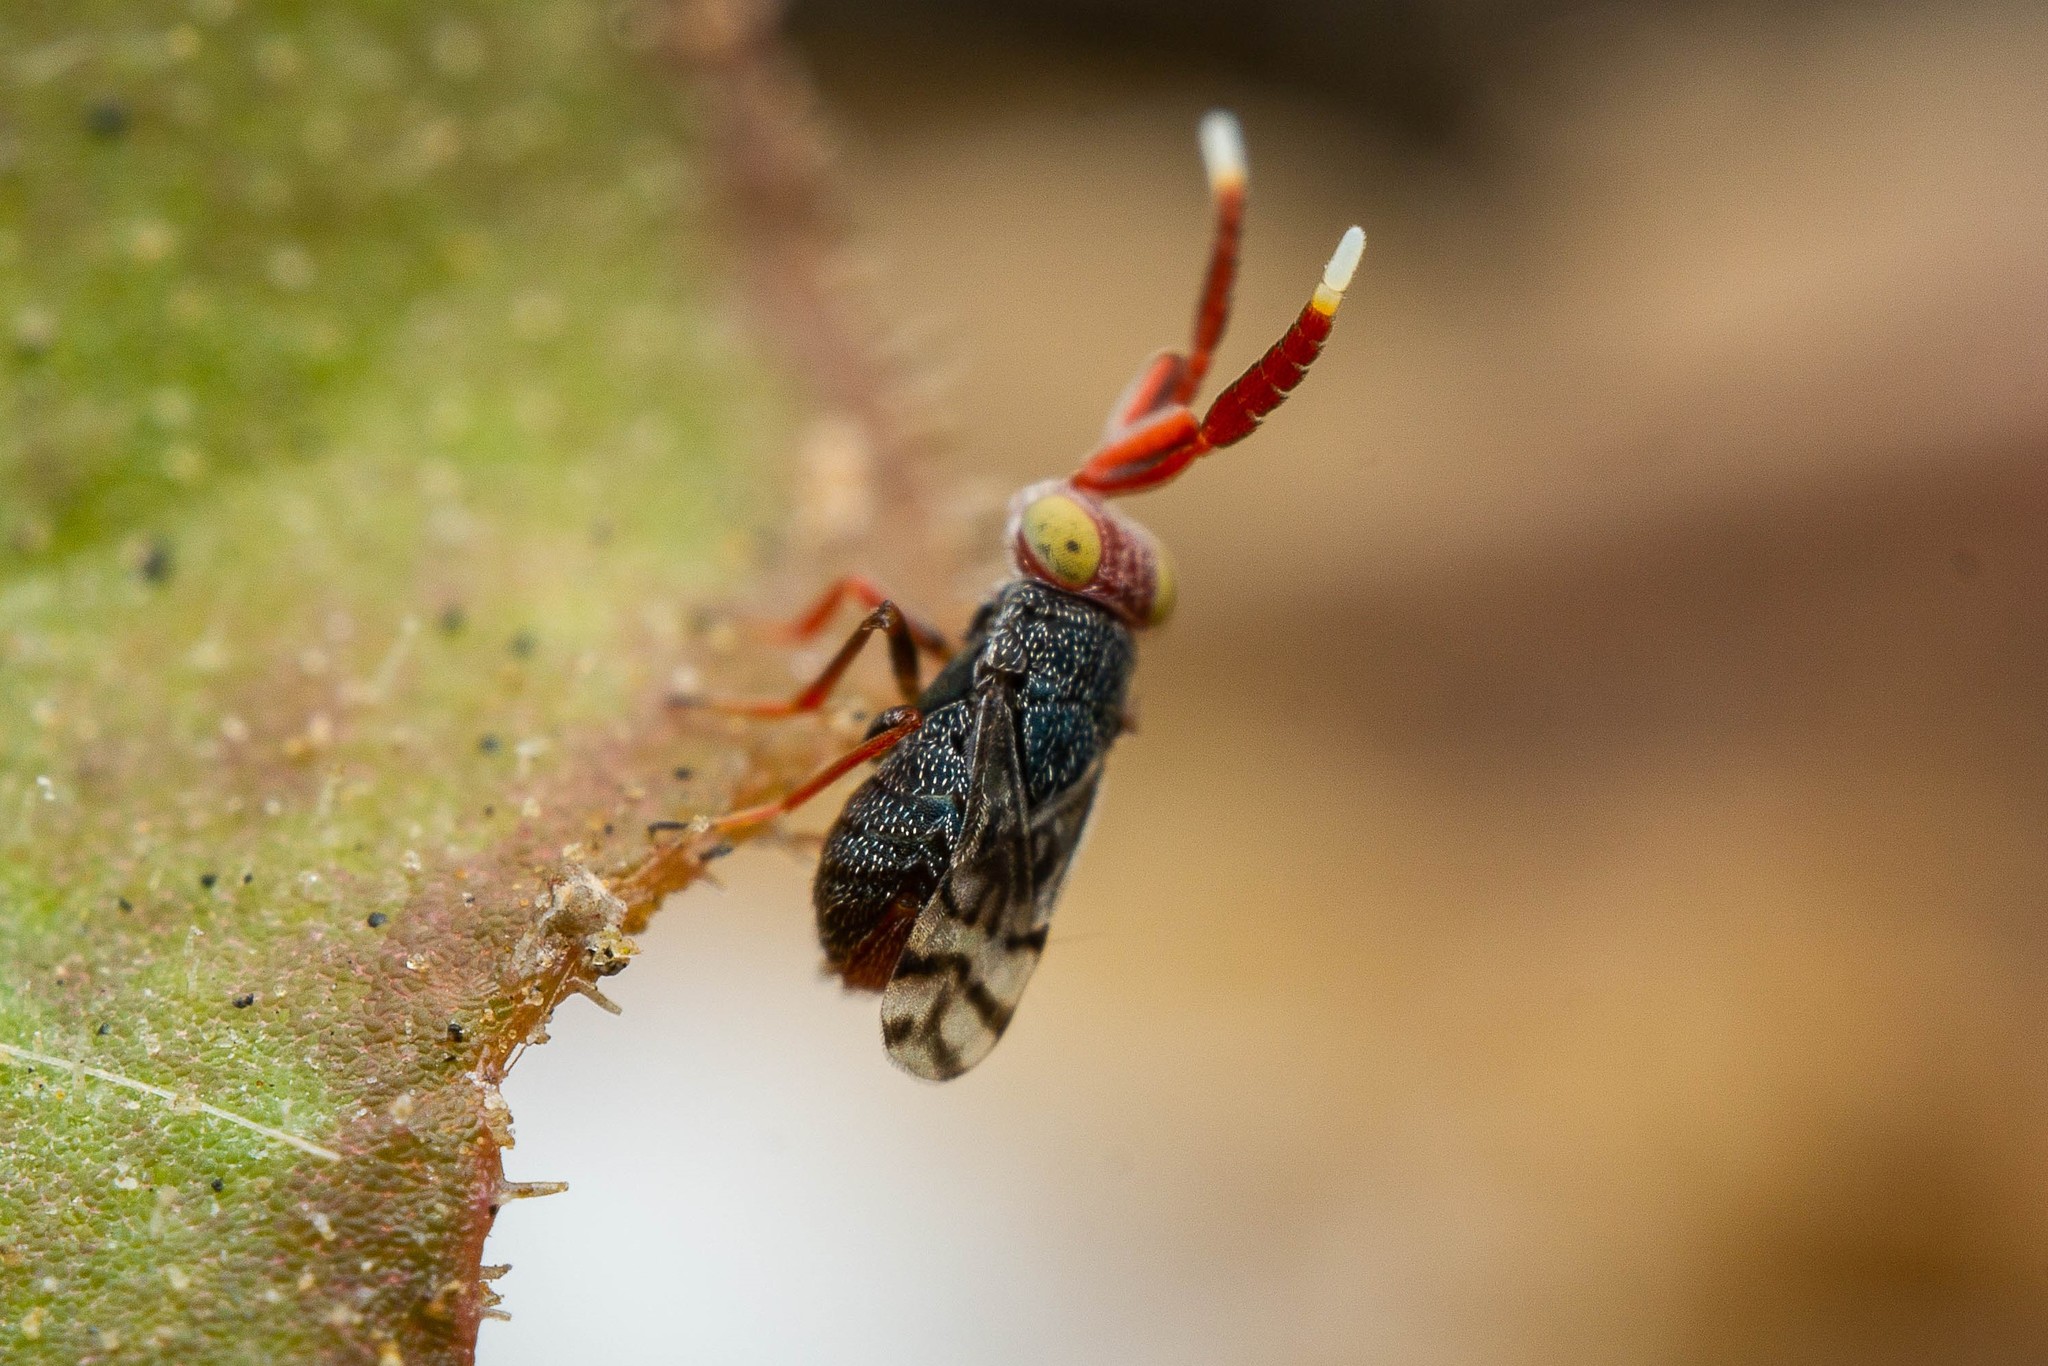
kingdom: Animalia
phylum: Arthropoda
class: Insecta
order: Hymenoptera
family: Encyrtidae
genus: Dicarnosis
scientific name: Dicarnosis erythrocephala
